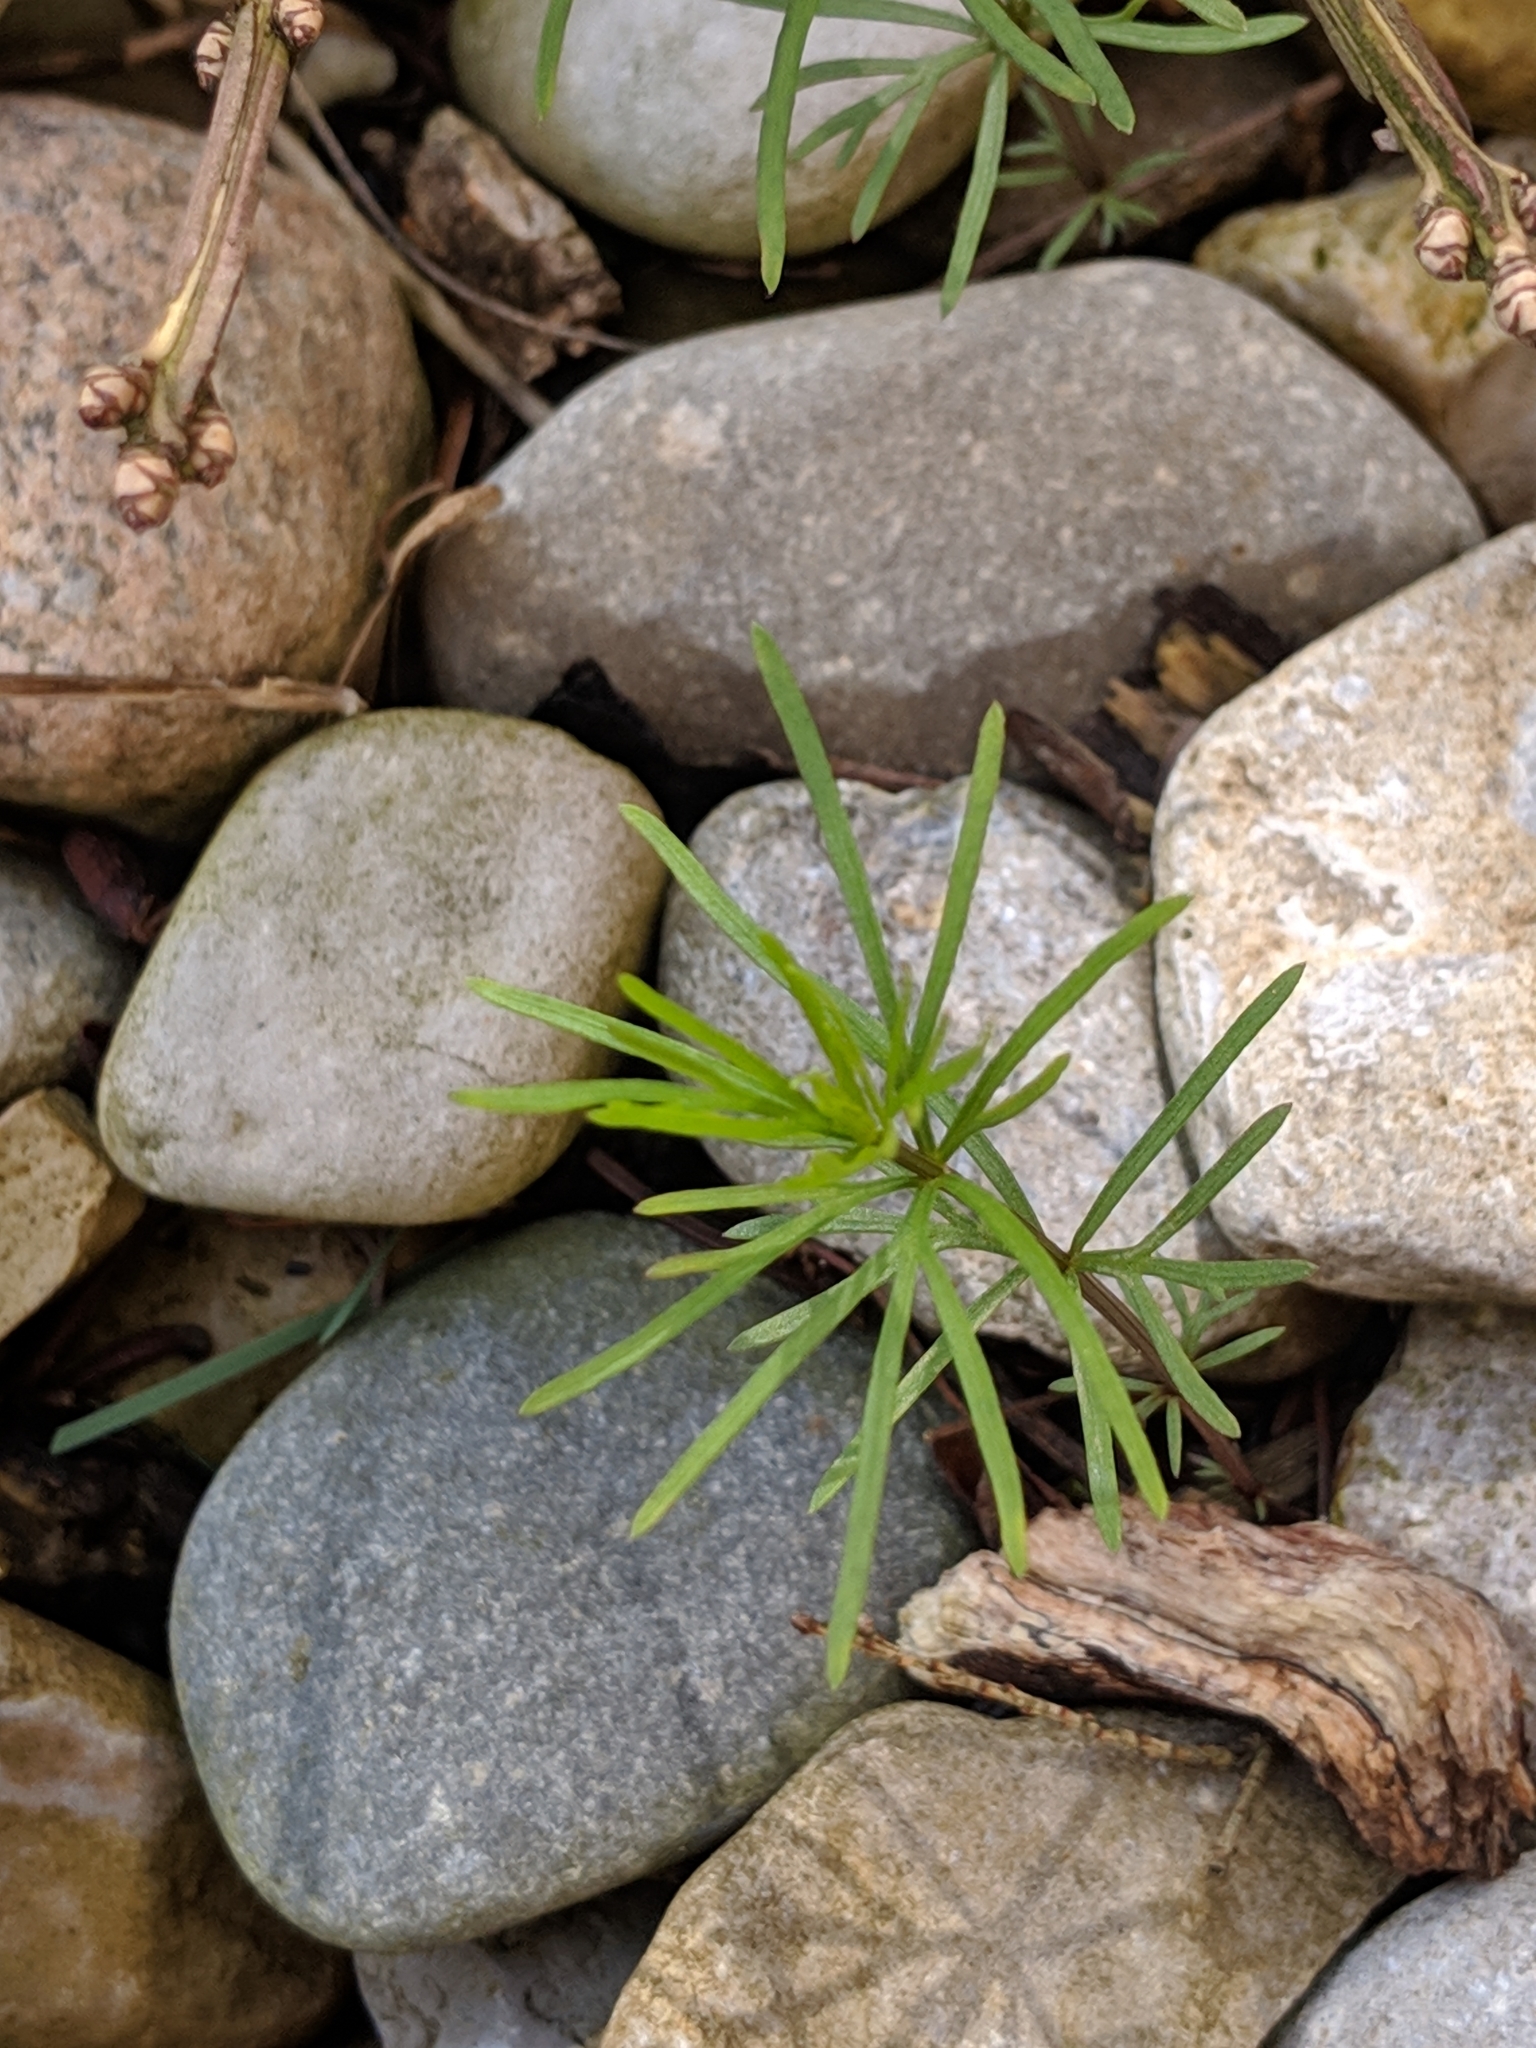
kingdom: Plantae
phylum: Tracheophyta
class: Magnoliopsida
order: Asterales
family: Asteraceae
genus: Coreopsis
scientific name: Coreopsis verticillata
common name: Whorled tickseed
